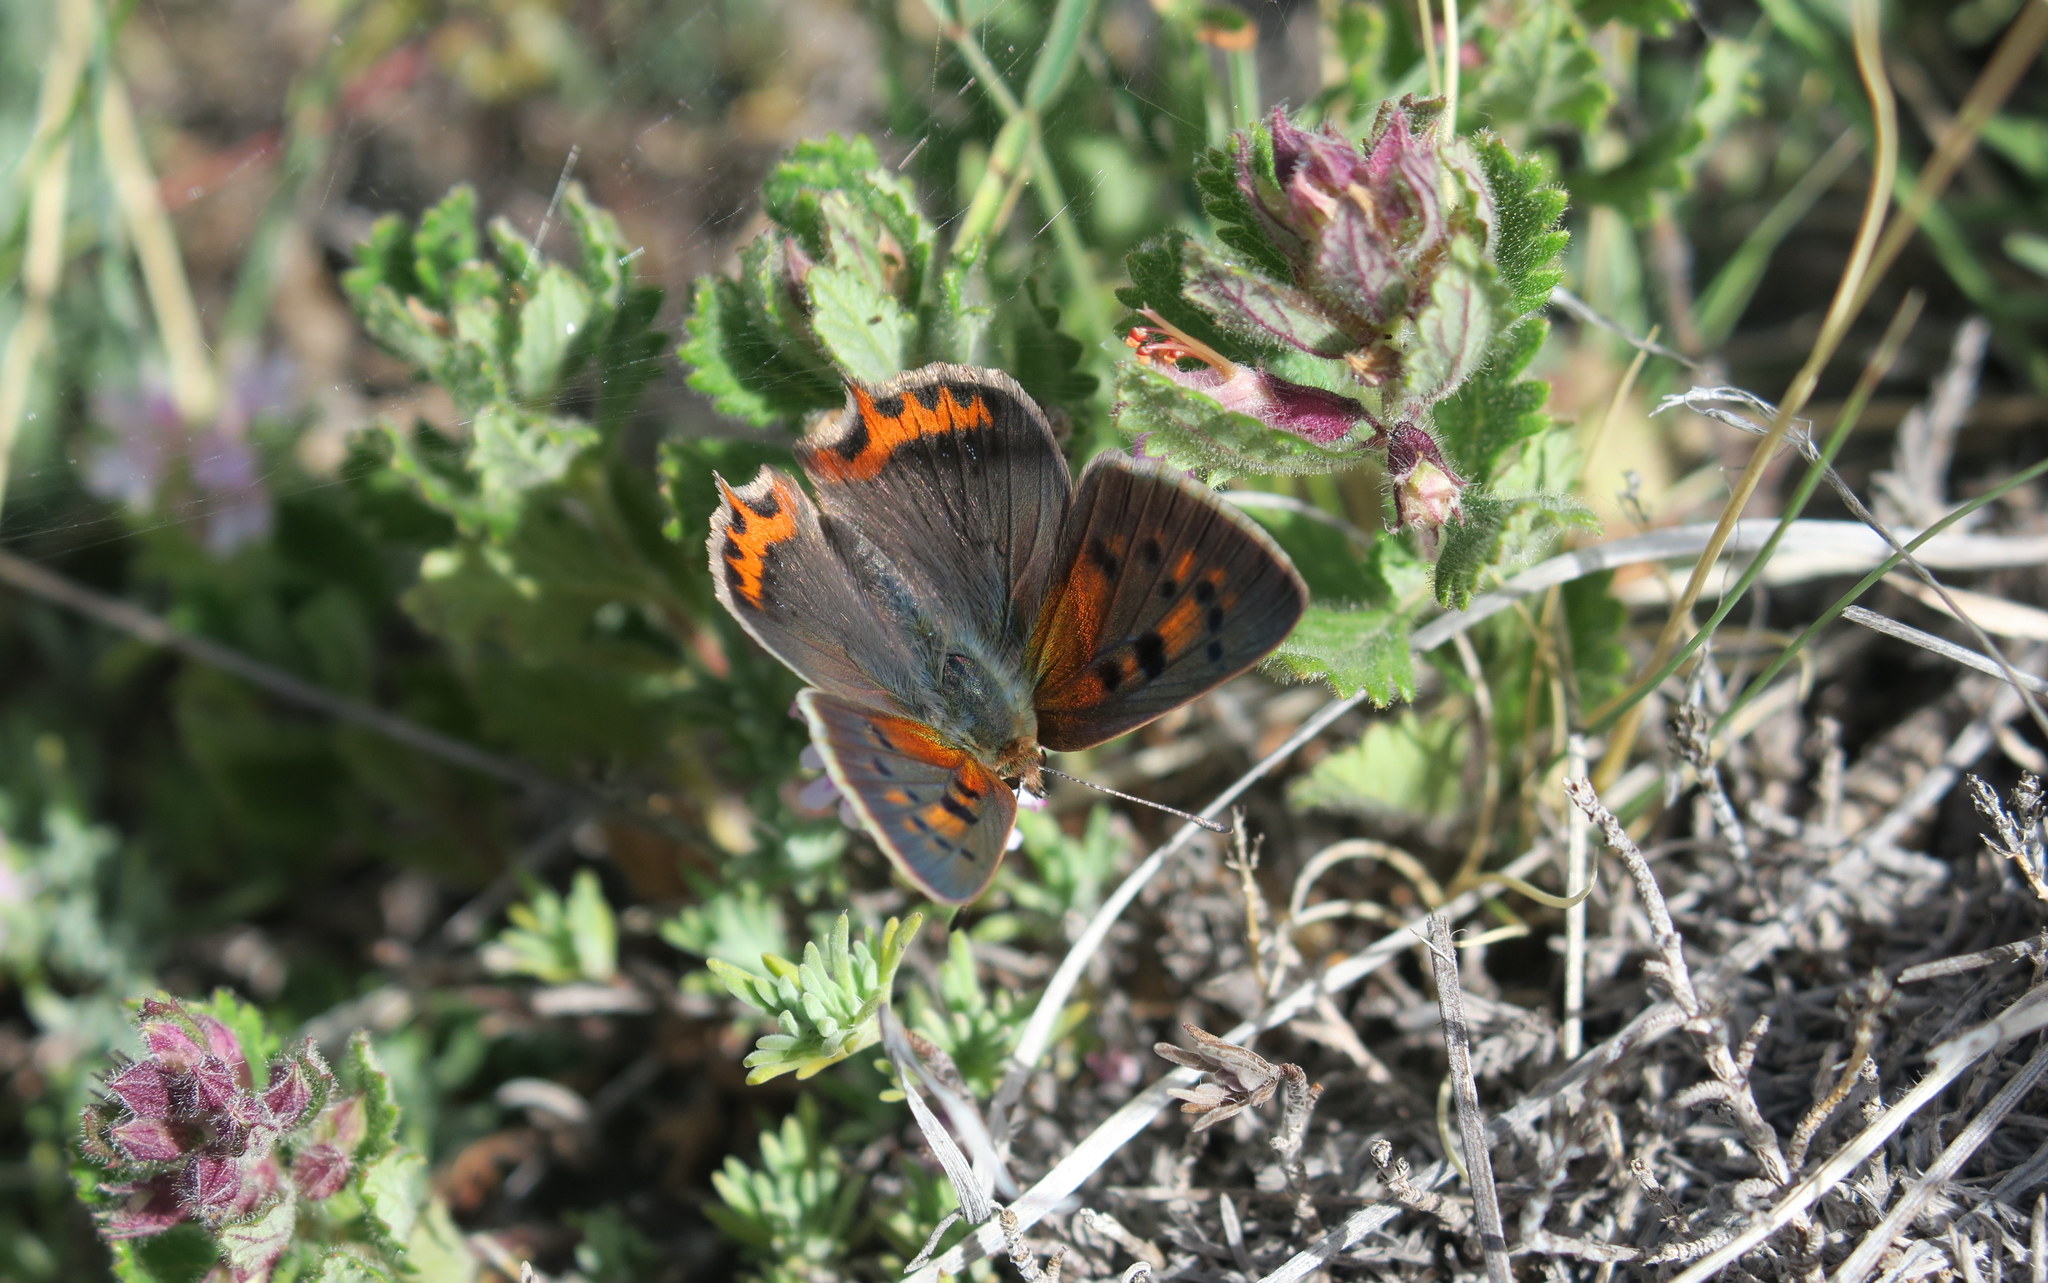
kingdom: Animalia
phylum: Arthropoda
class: Insecta
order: Lepidoptera
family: Lycaenidae
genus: Lycaena
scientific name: Lycaena phlaeas
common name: Small copper
